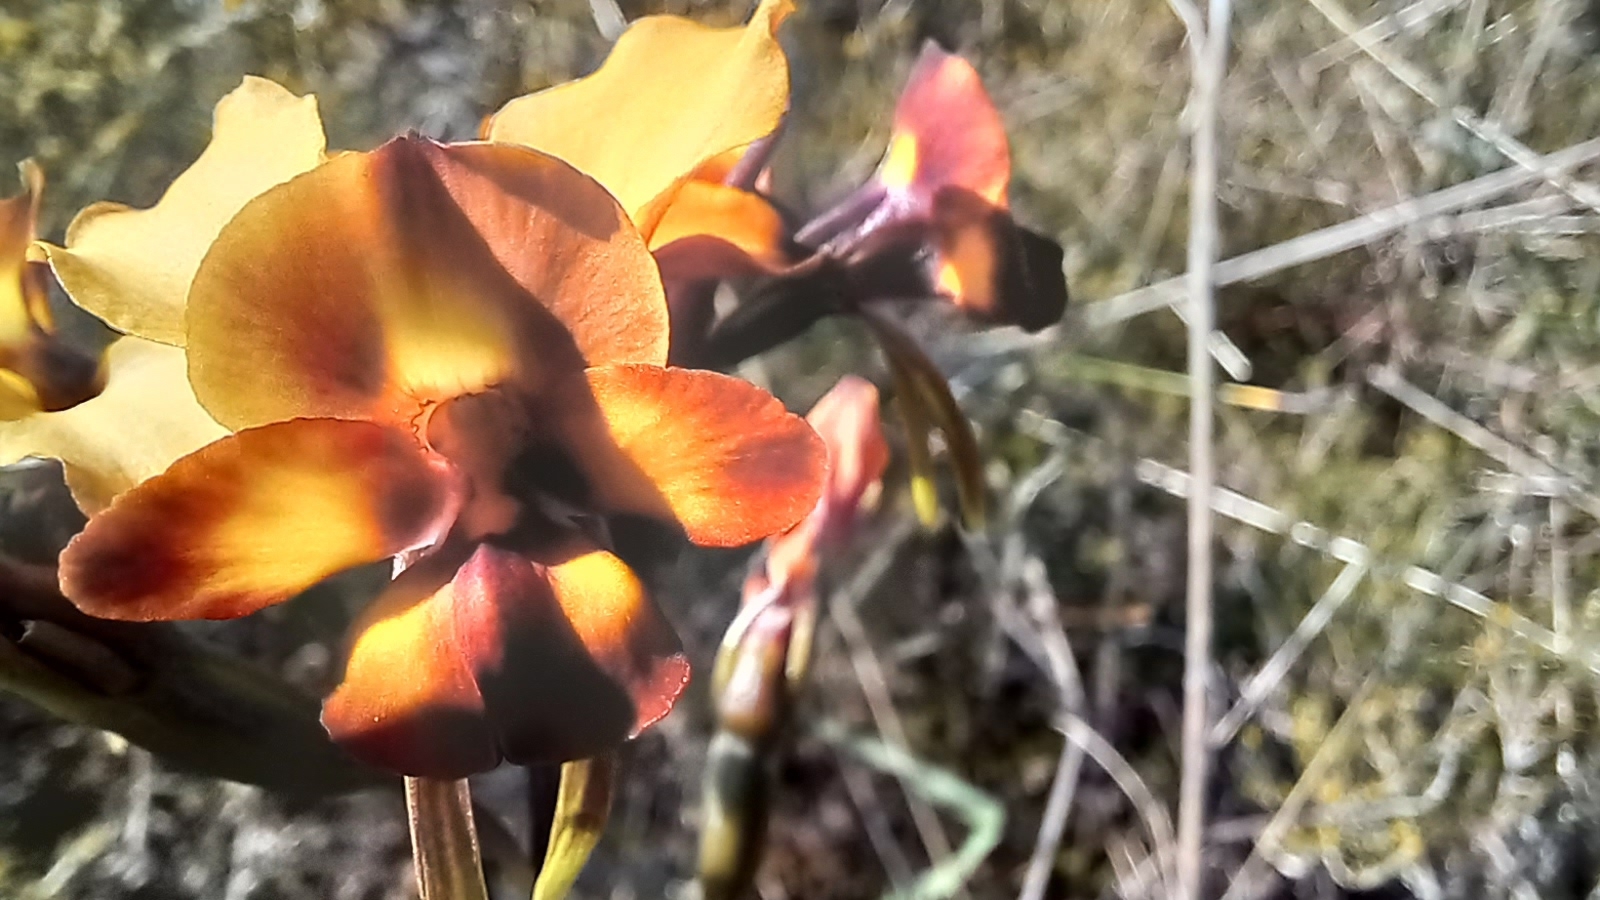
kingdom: Plantae
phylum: Tracheophyta
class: Liliopsida
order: Asparagales
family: Orchidaceae
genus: Diuris
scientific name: Diuris corymbosa
